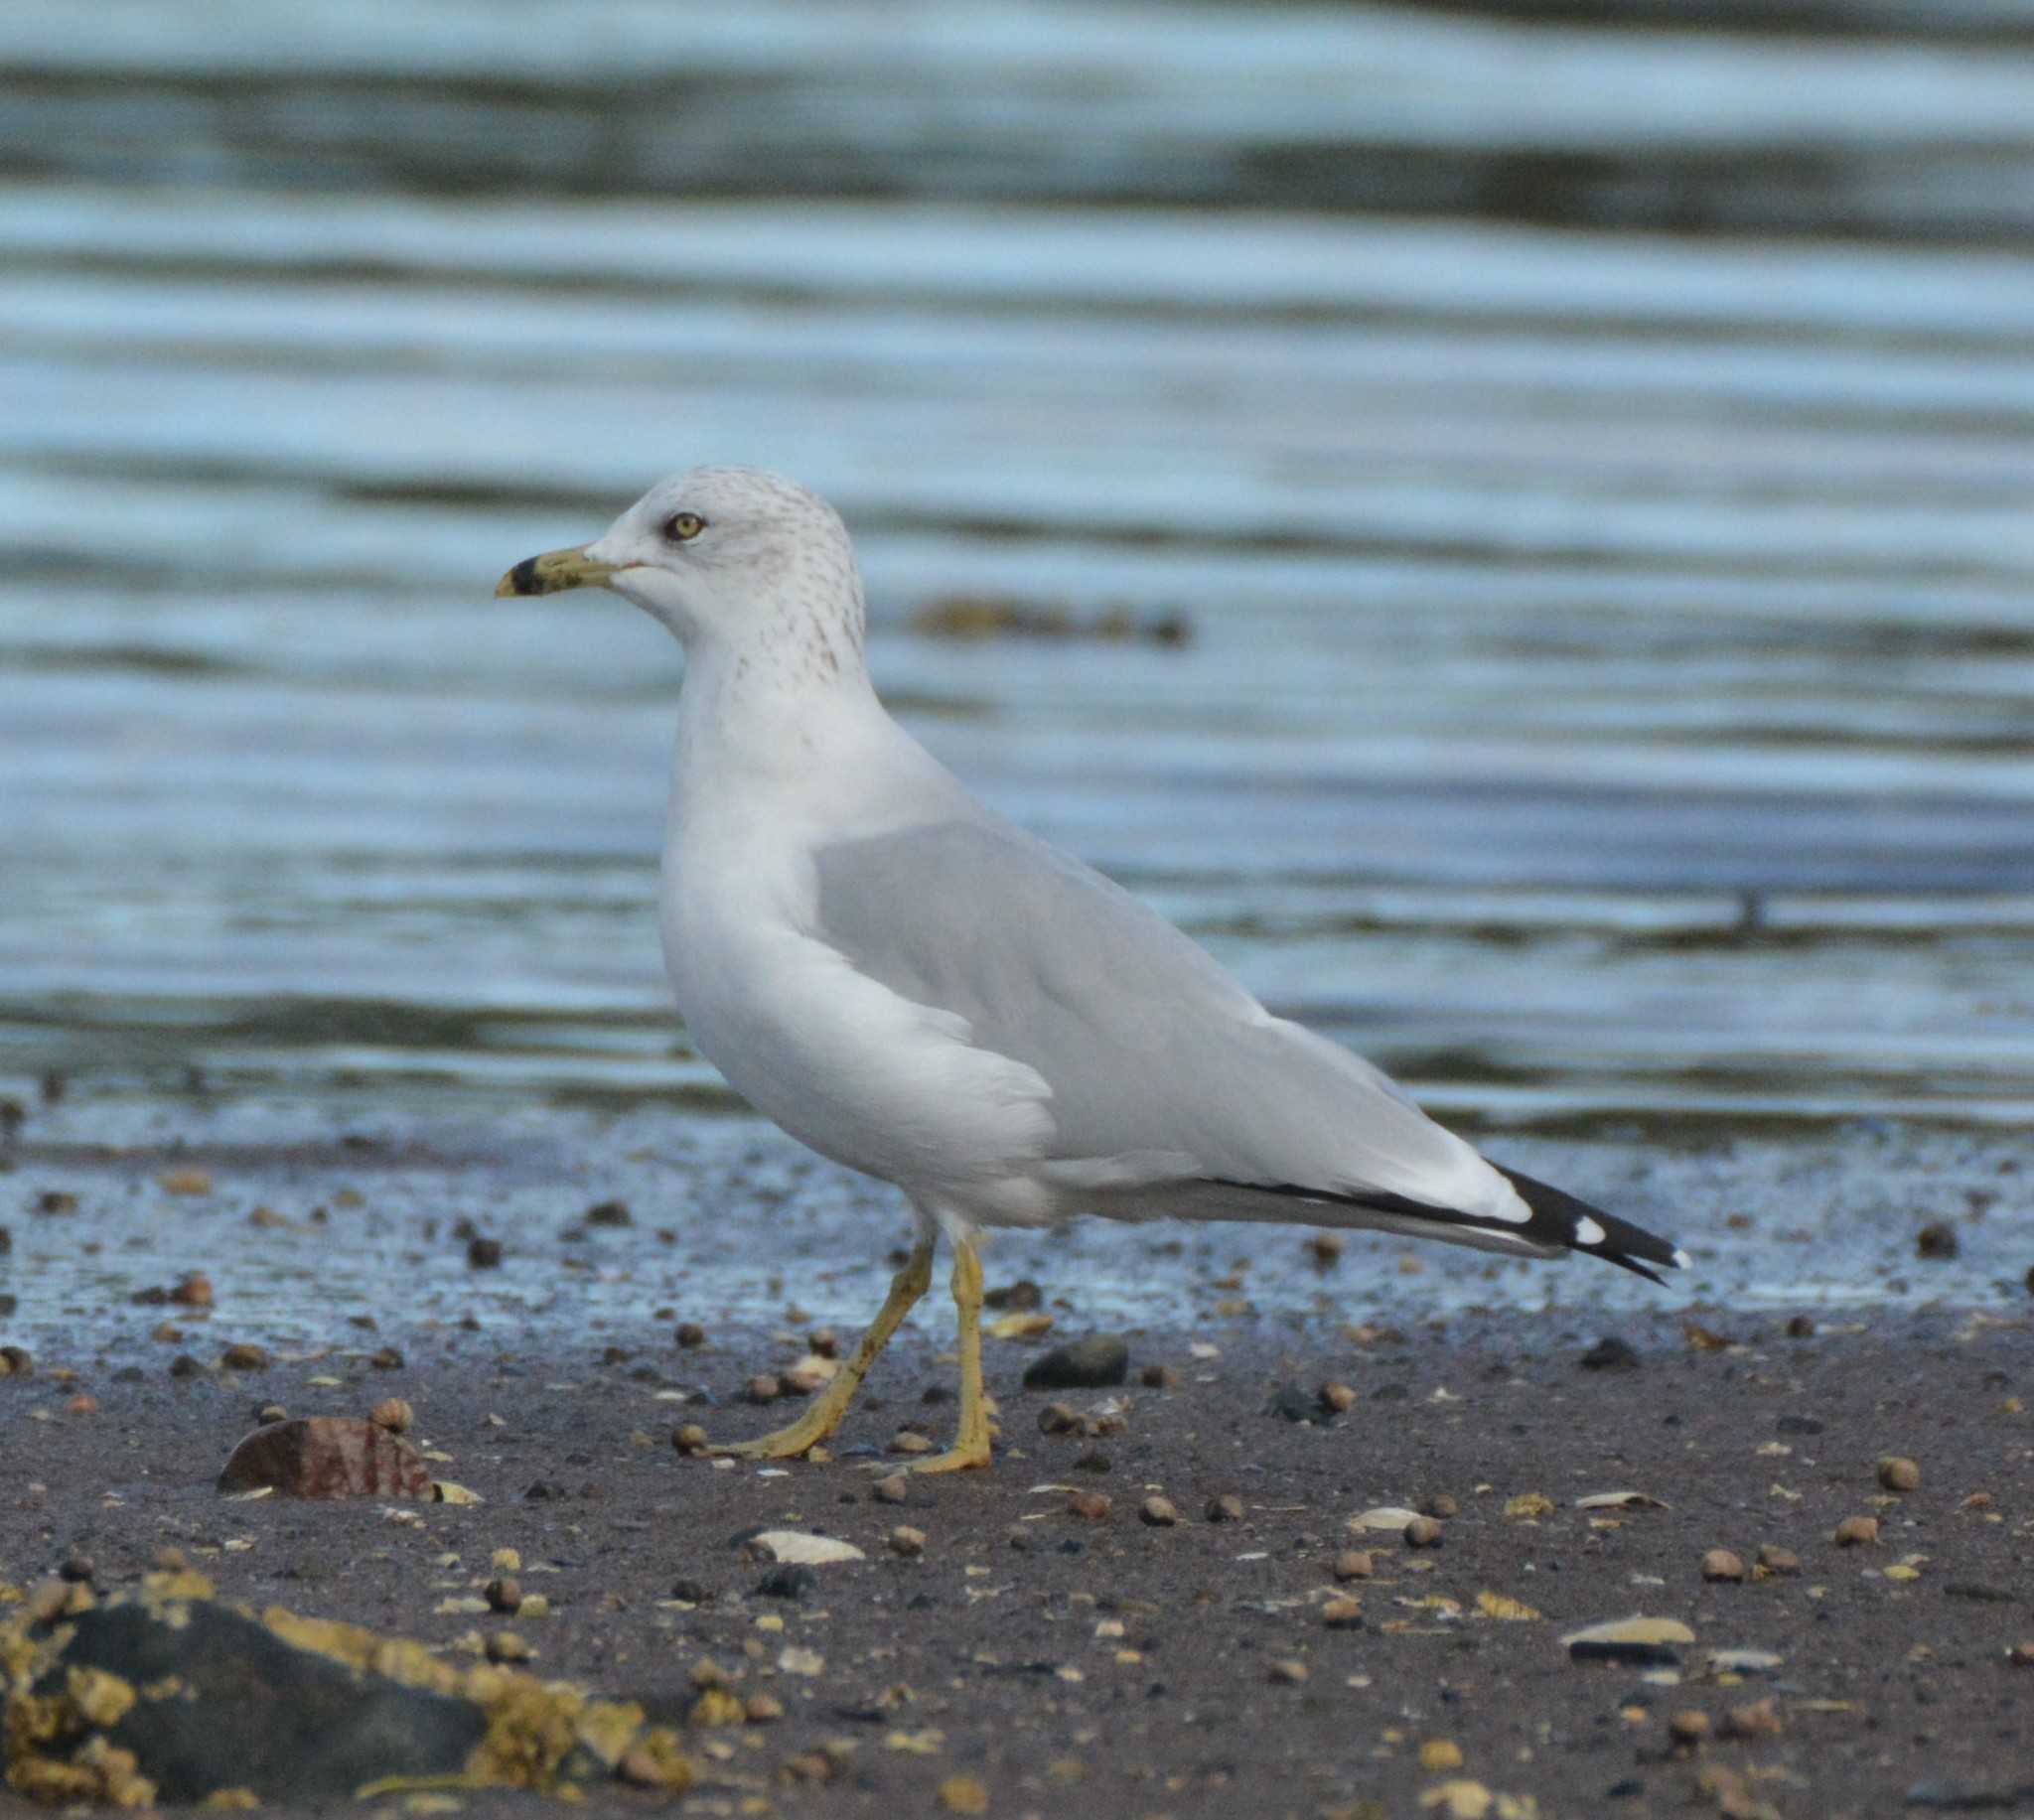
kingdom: Animalia
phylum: Chordata
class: Aves
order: Charadriiformes
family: Laridae
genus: Larus
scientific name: Larus delawarensis
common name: Ring-billed gull
